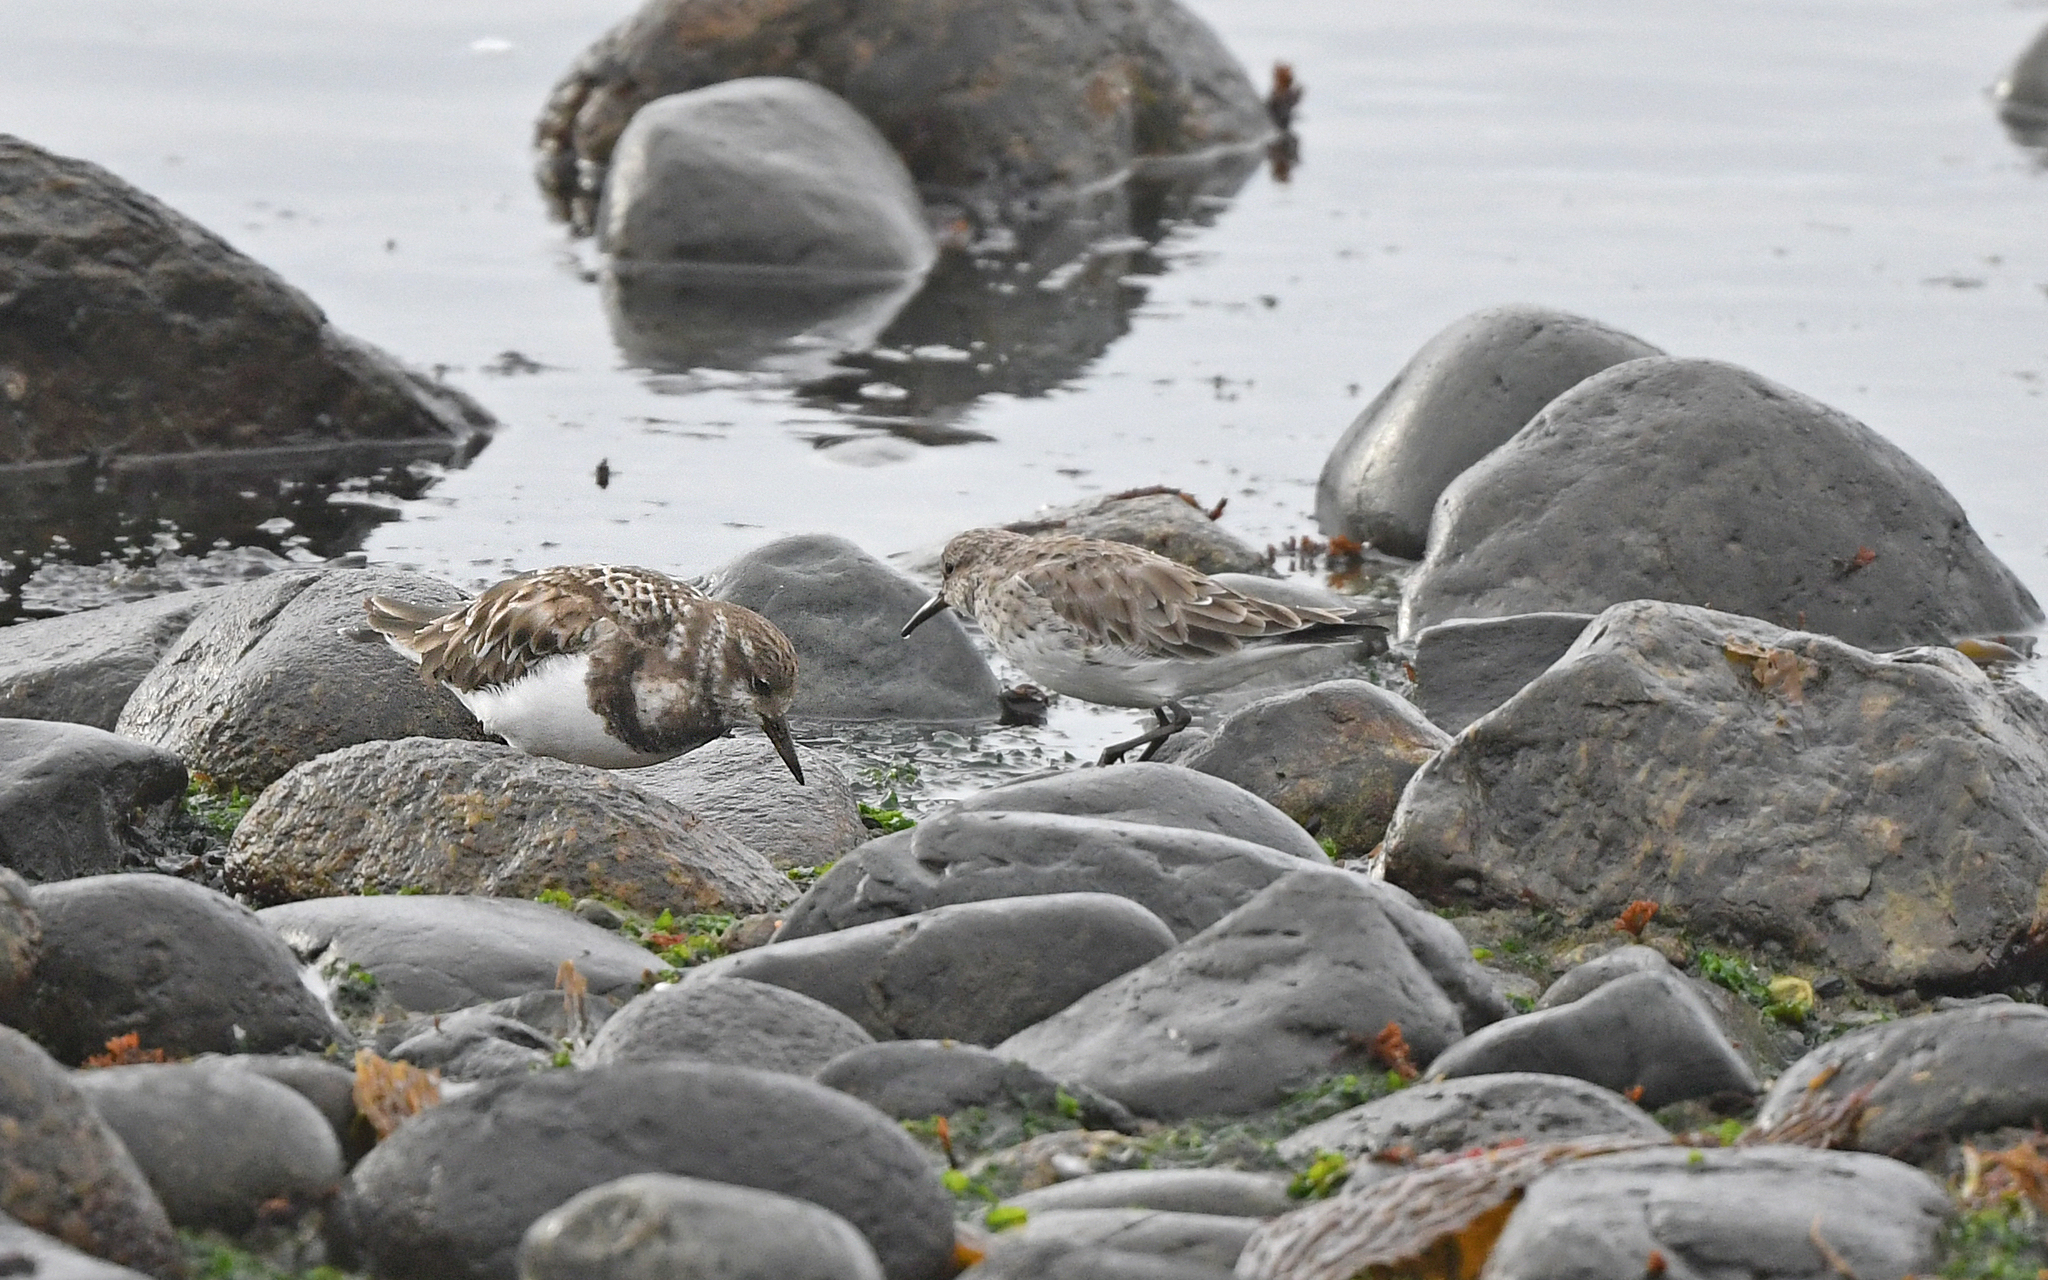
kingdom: Animalia
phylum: Chordata
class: Aves
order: Charadriiformes
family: Scolopacidae
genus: Arenaria
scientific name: Arenaria interpres
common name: Ruddy turnstone
